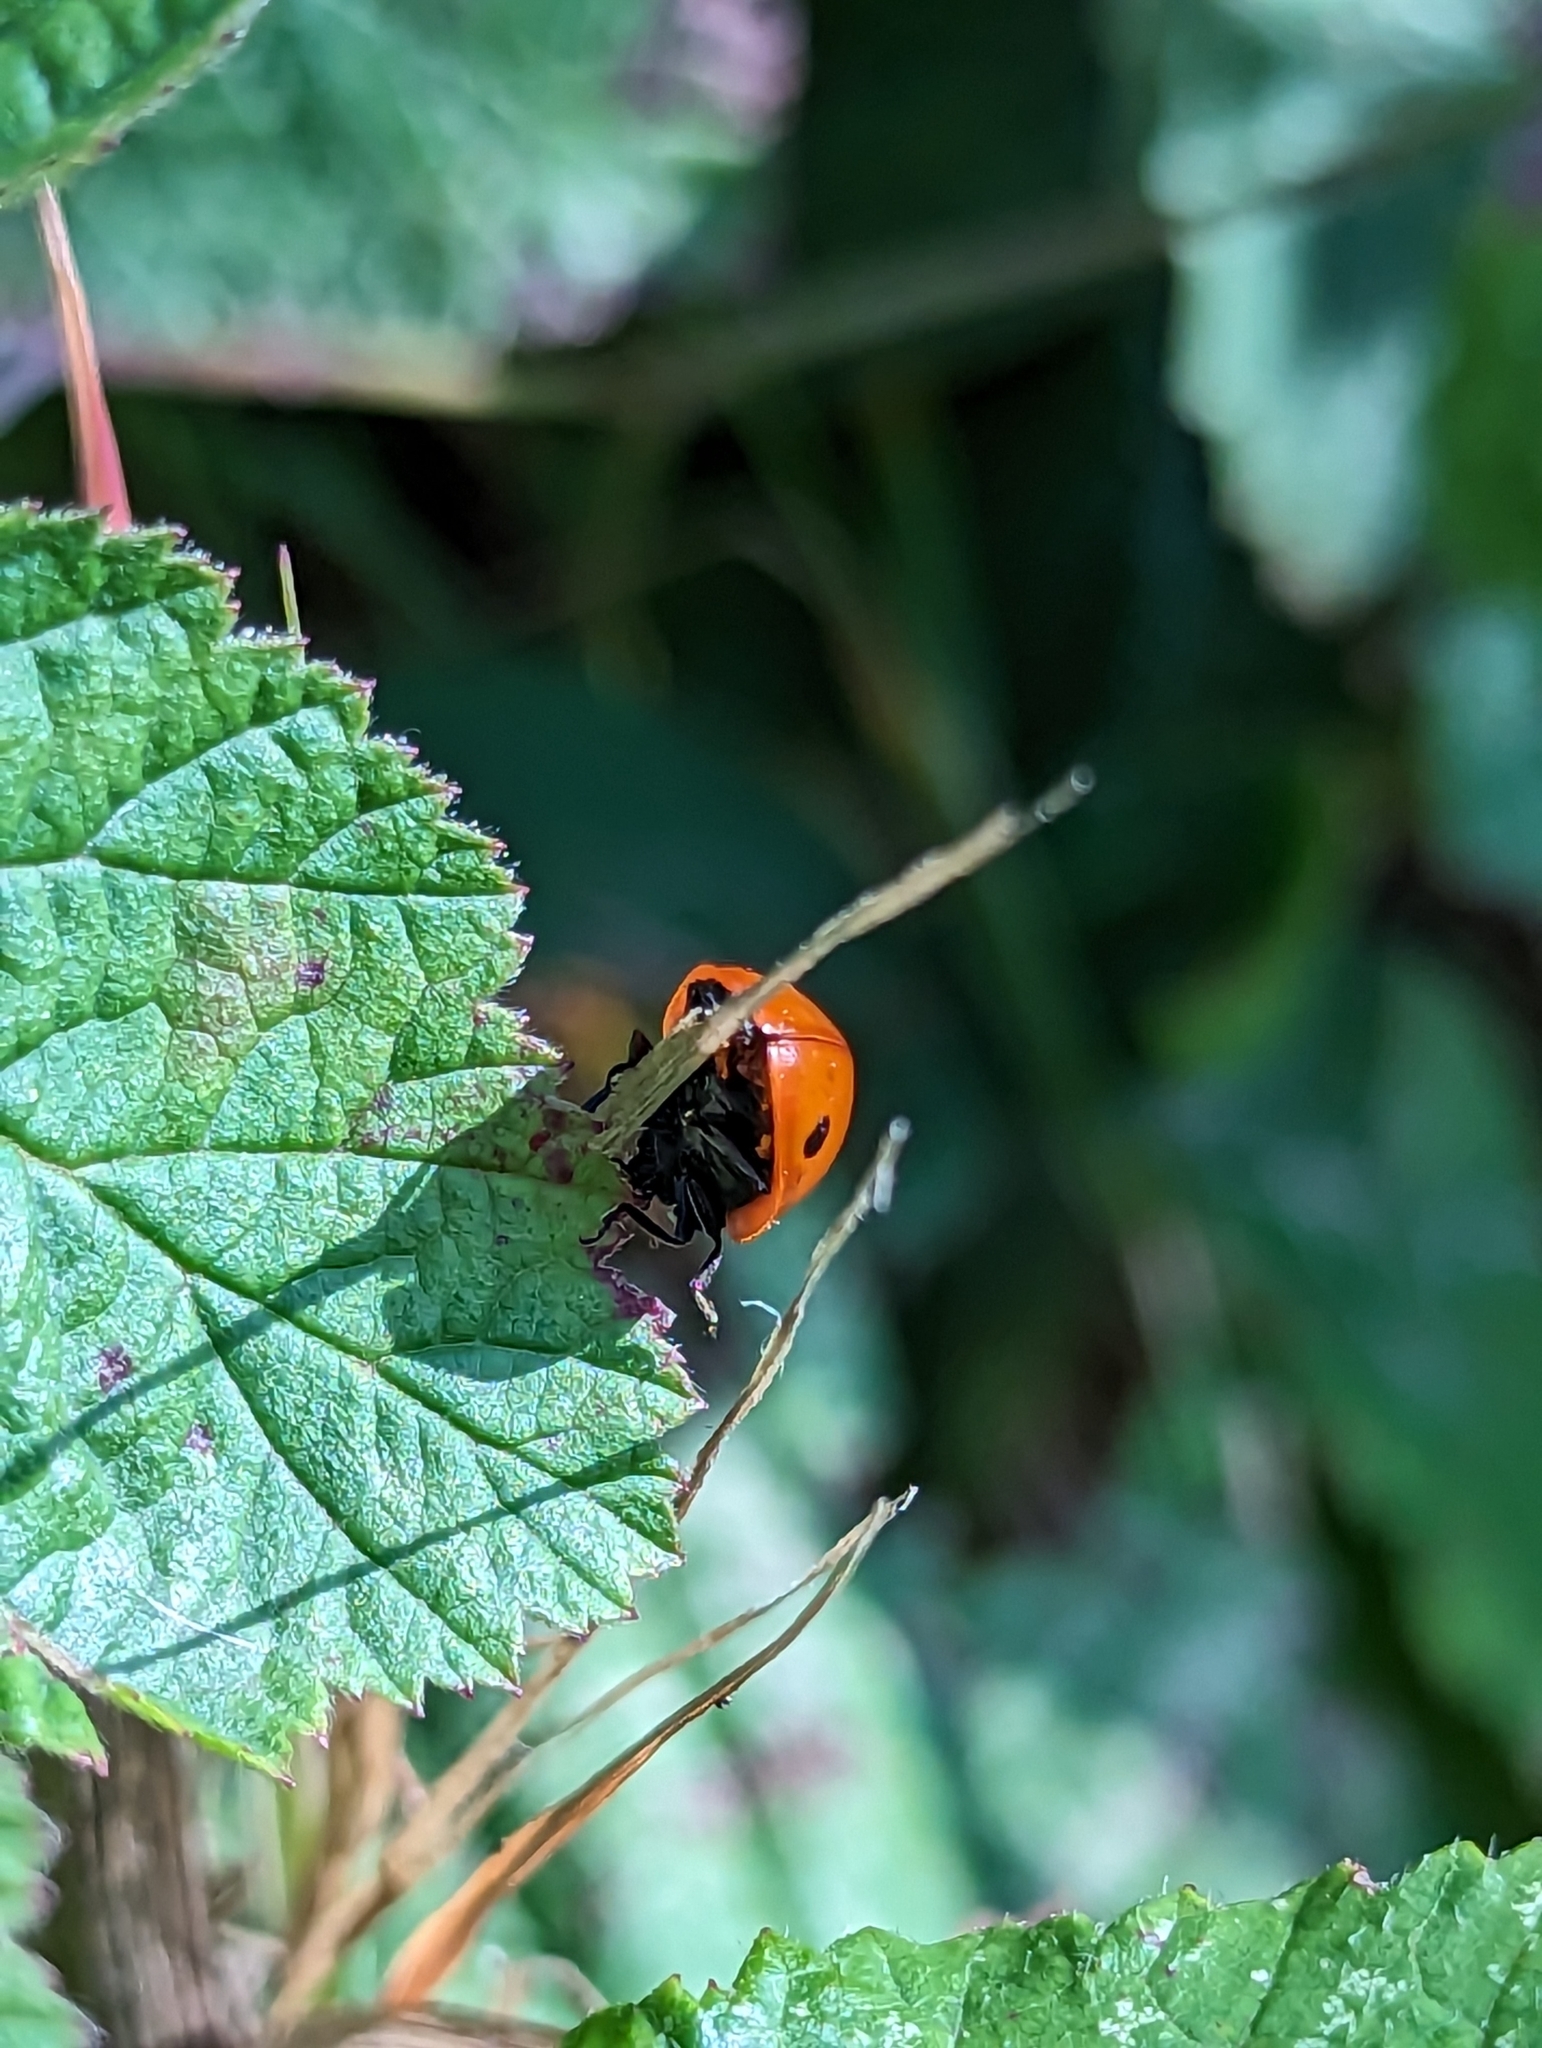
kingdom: Animalia
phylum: Arthropoda
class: Insecta
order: Coleoptera
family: Coccinellidae
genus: Coccinella
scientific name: Coccinella septempunctata
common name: Sevenspotted lady beetle
